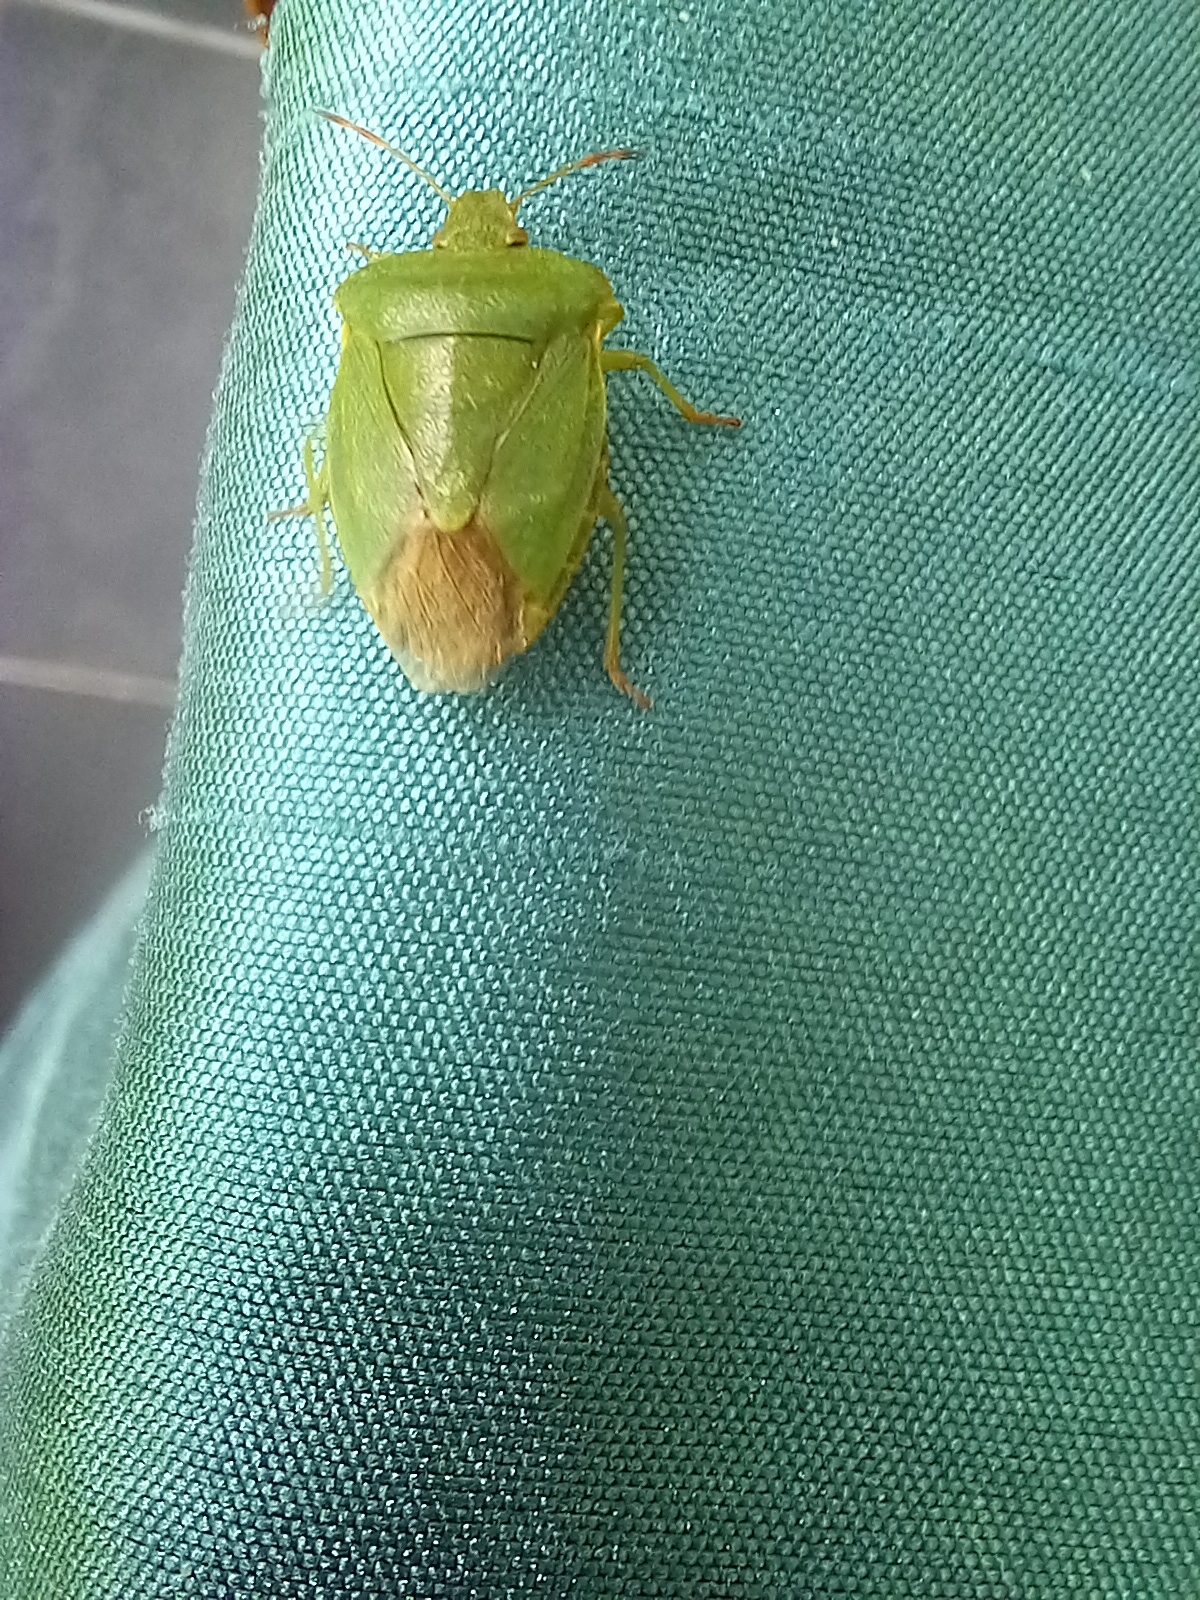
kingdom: Animalia
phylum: Arthropoda
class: Insecta
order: Hemiptera
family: Pentatomidae
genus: Palomena
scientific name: Palomena prasina
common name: Green shieldbug
